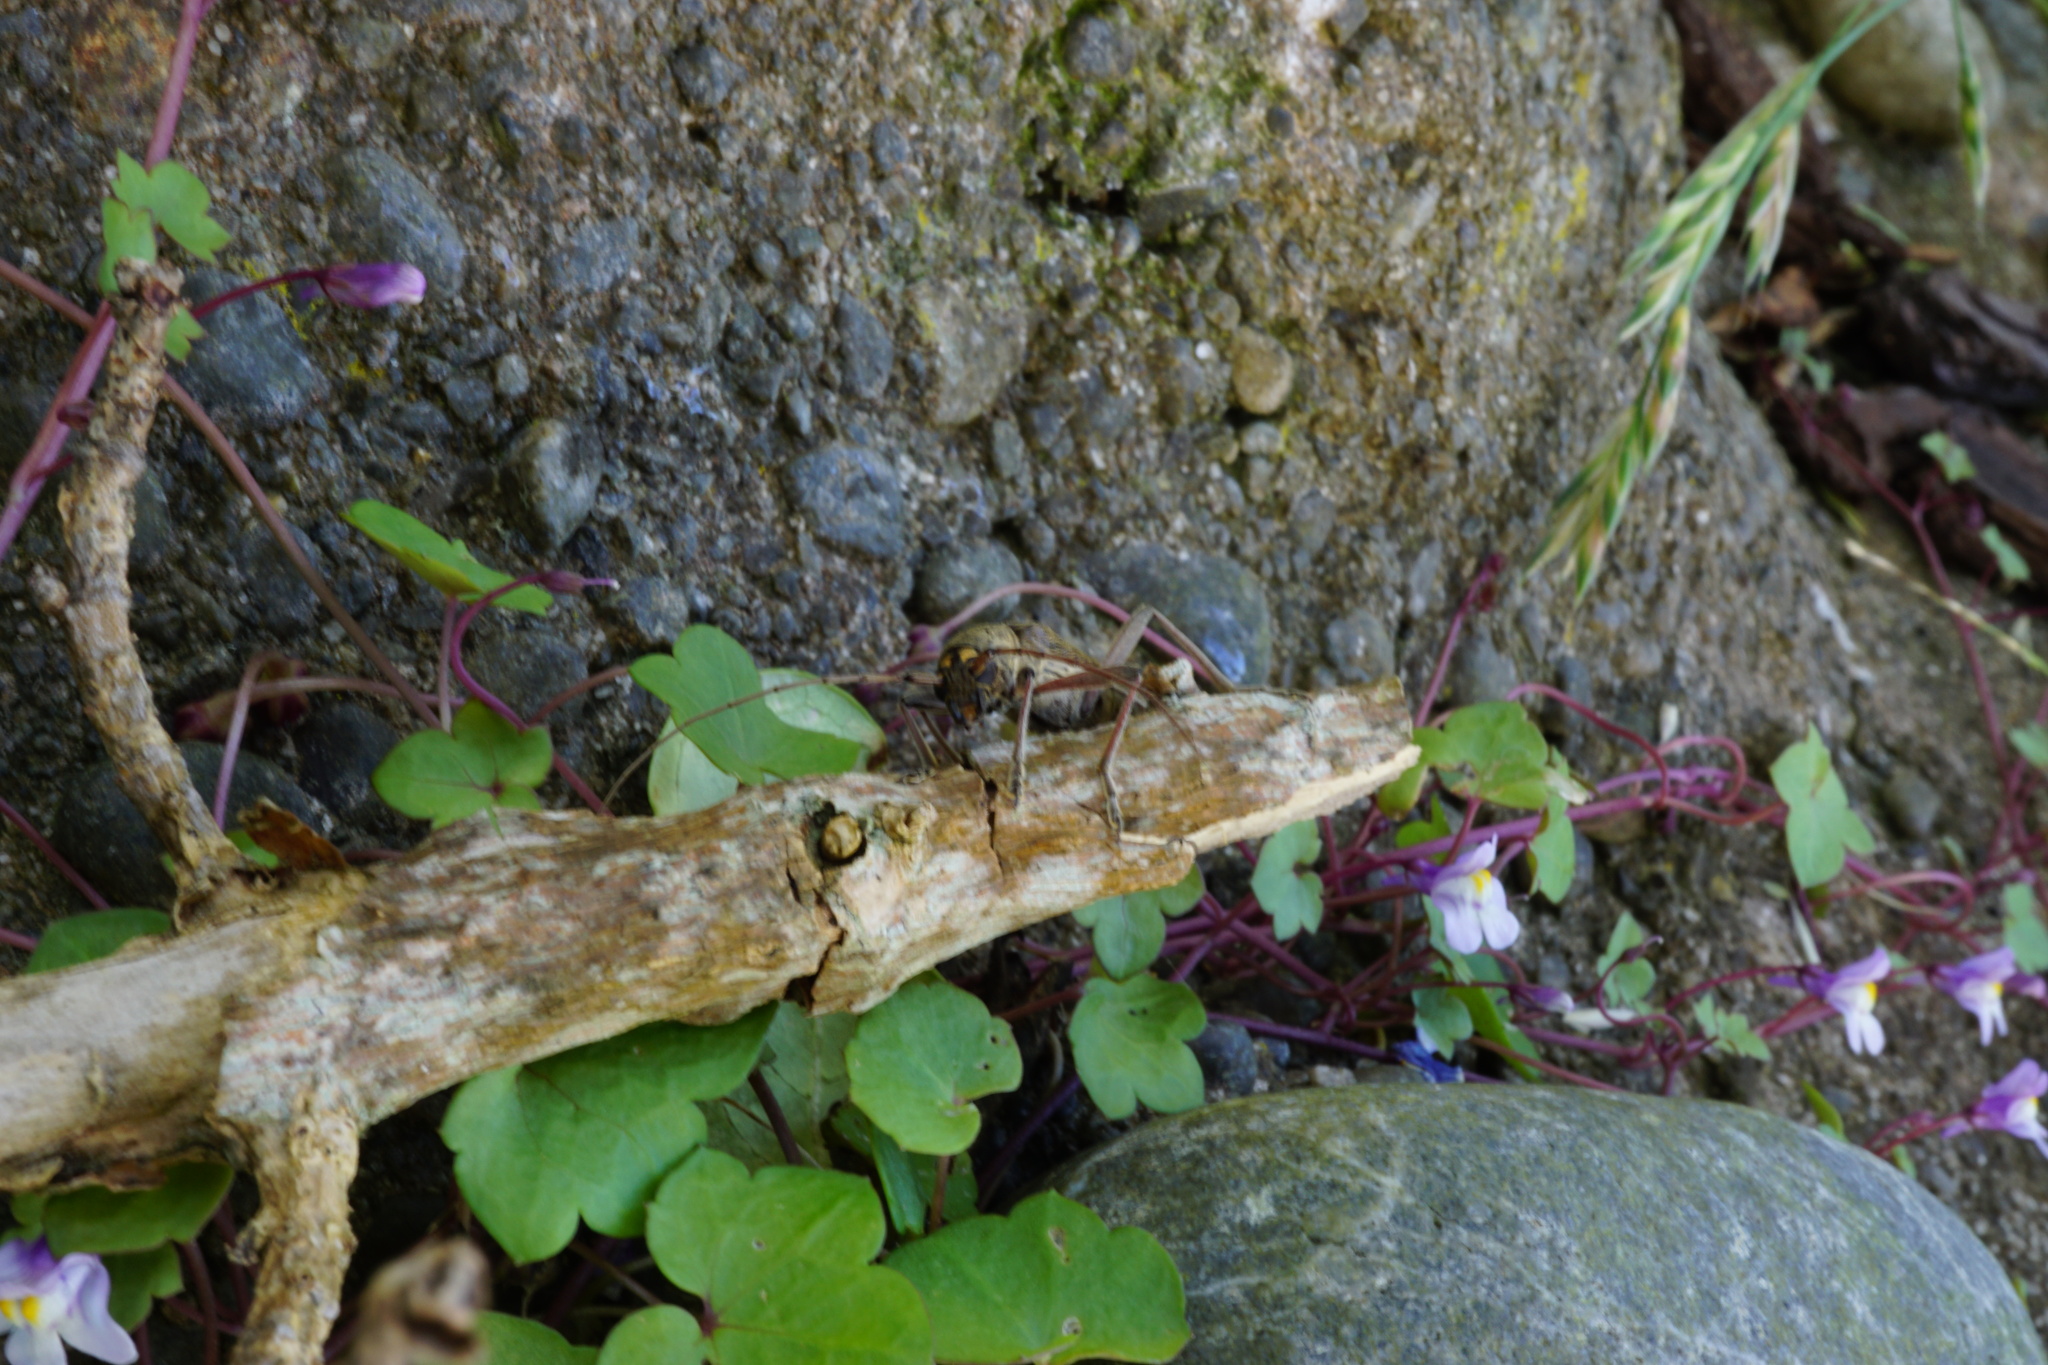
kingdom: Animalia
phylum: Arthropoda
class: Insecta
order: Coleoptera
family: Cerambycidae
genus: Oemona
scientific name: Oemona hirta
